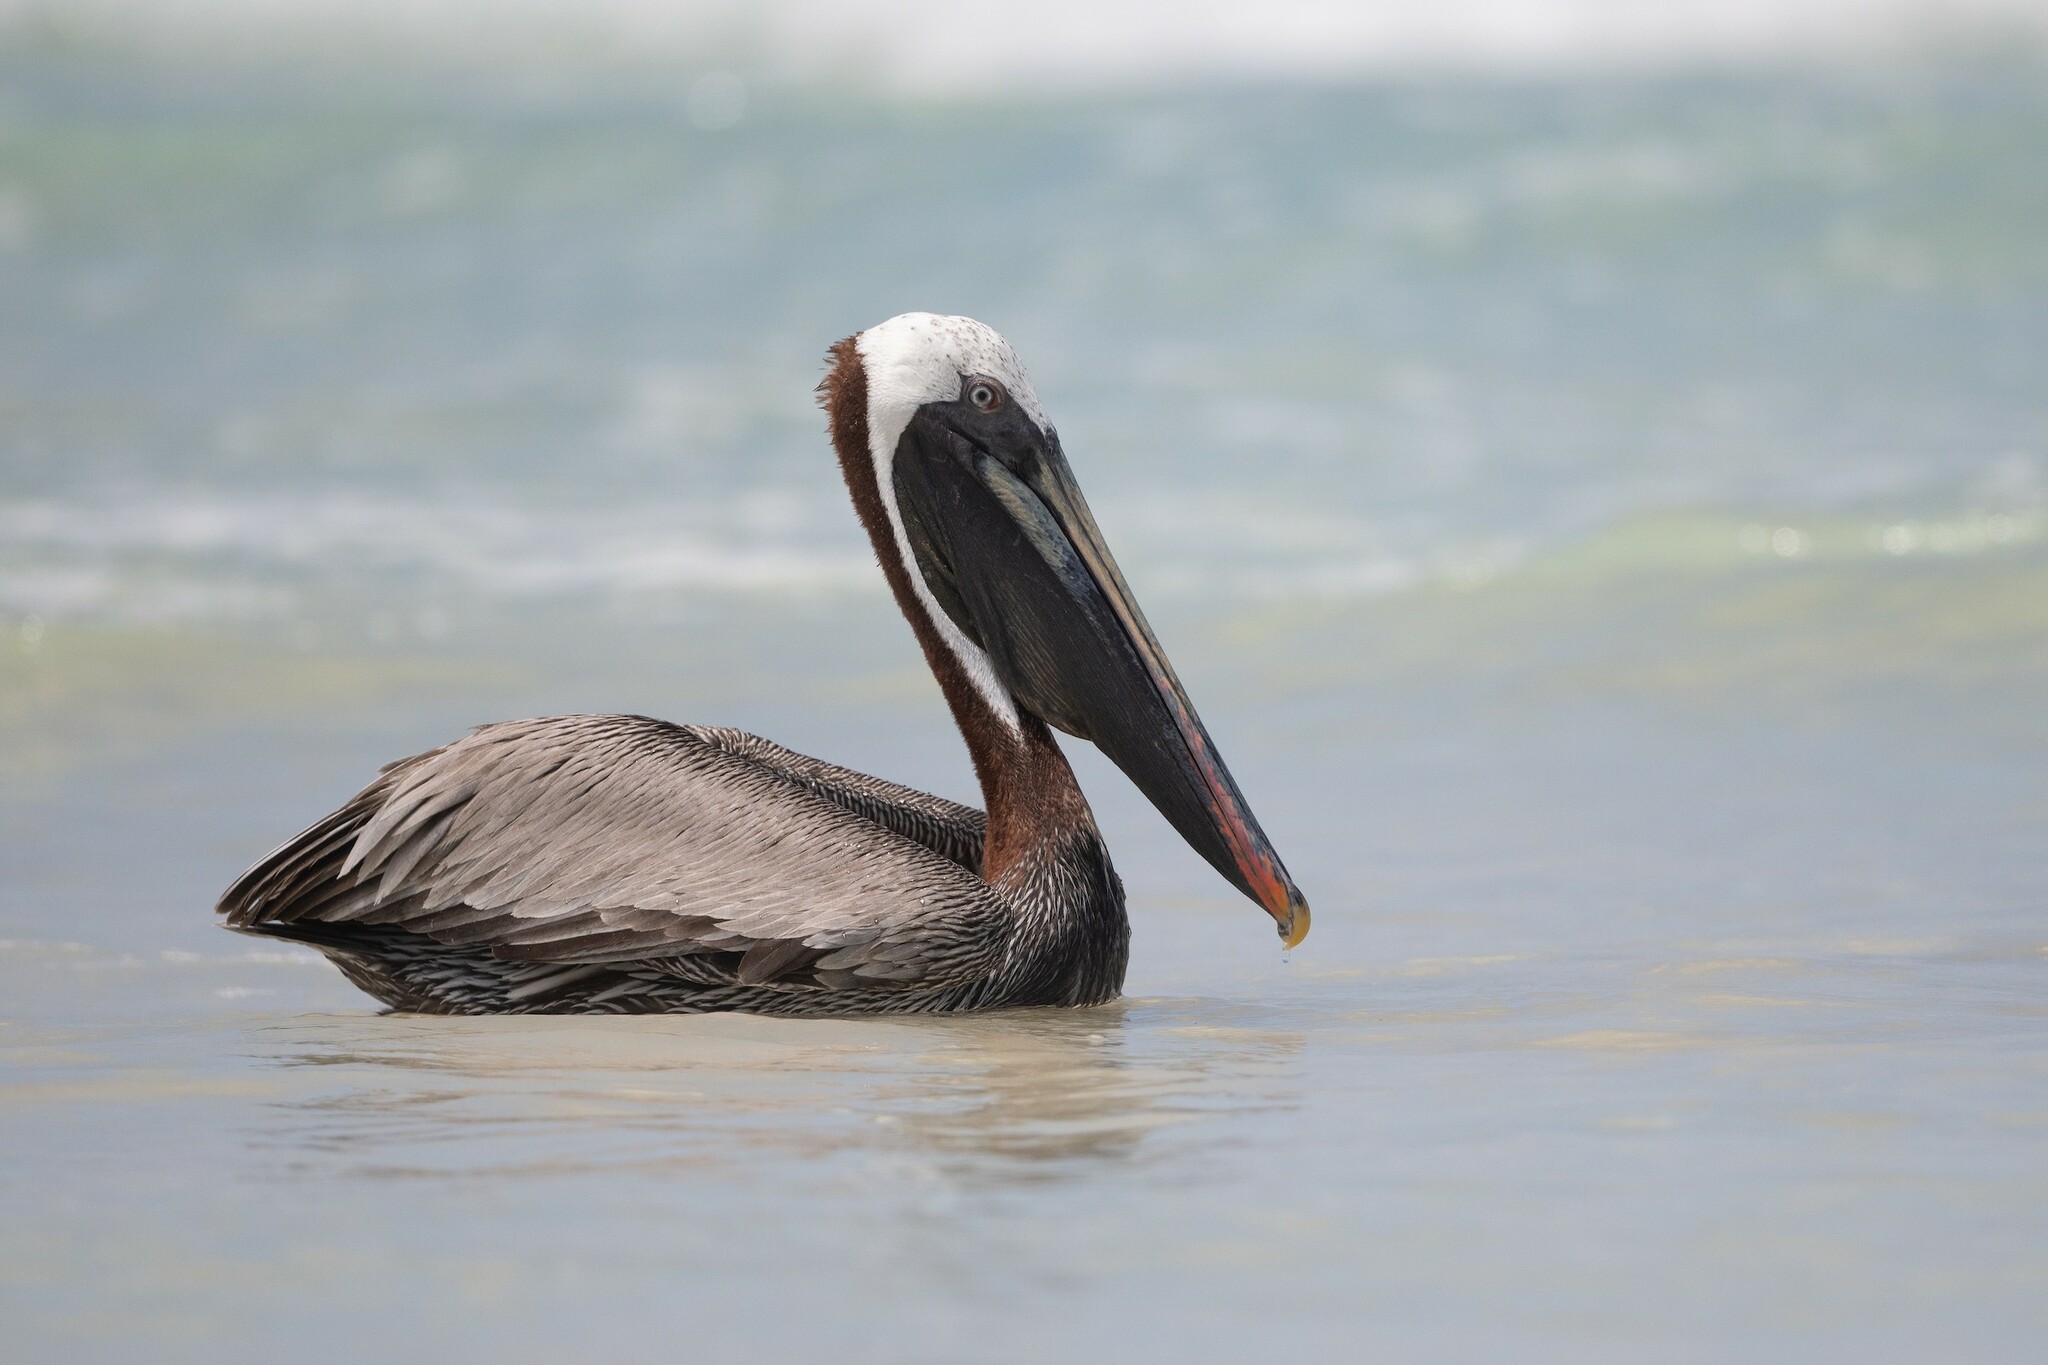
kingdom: Animalia
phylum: Chordata
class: Aves
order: Pelecaniformes
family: Pelecanidae
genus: Pelecanus
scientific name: Pelecanus occidentalis
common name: Brown pelican
